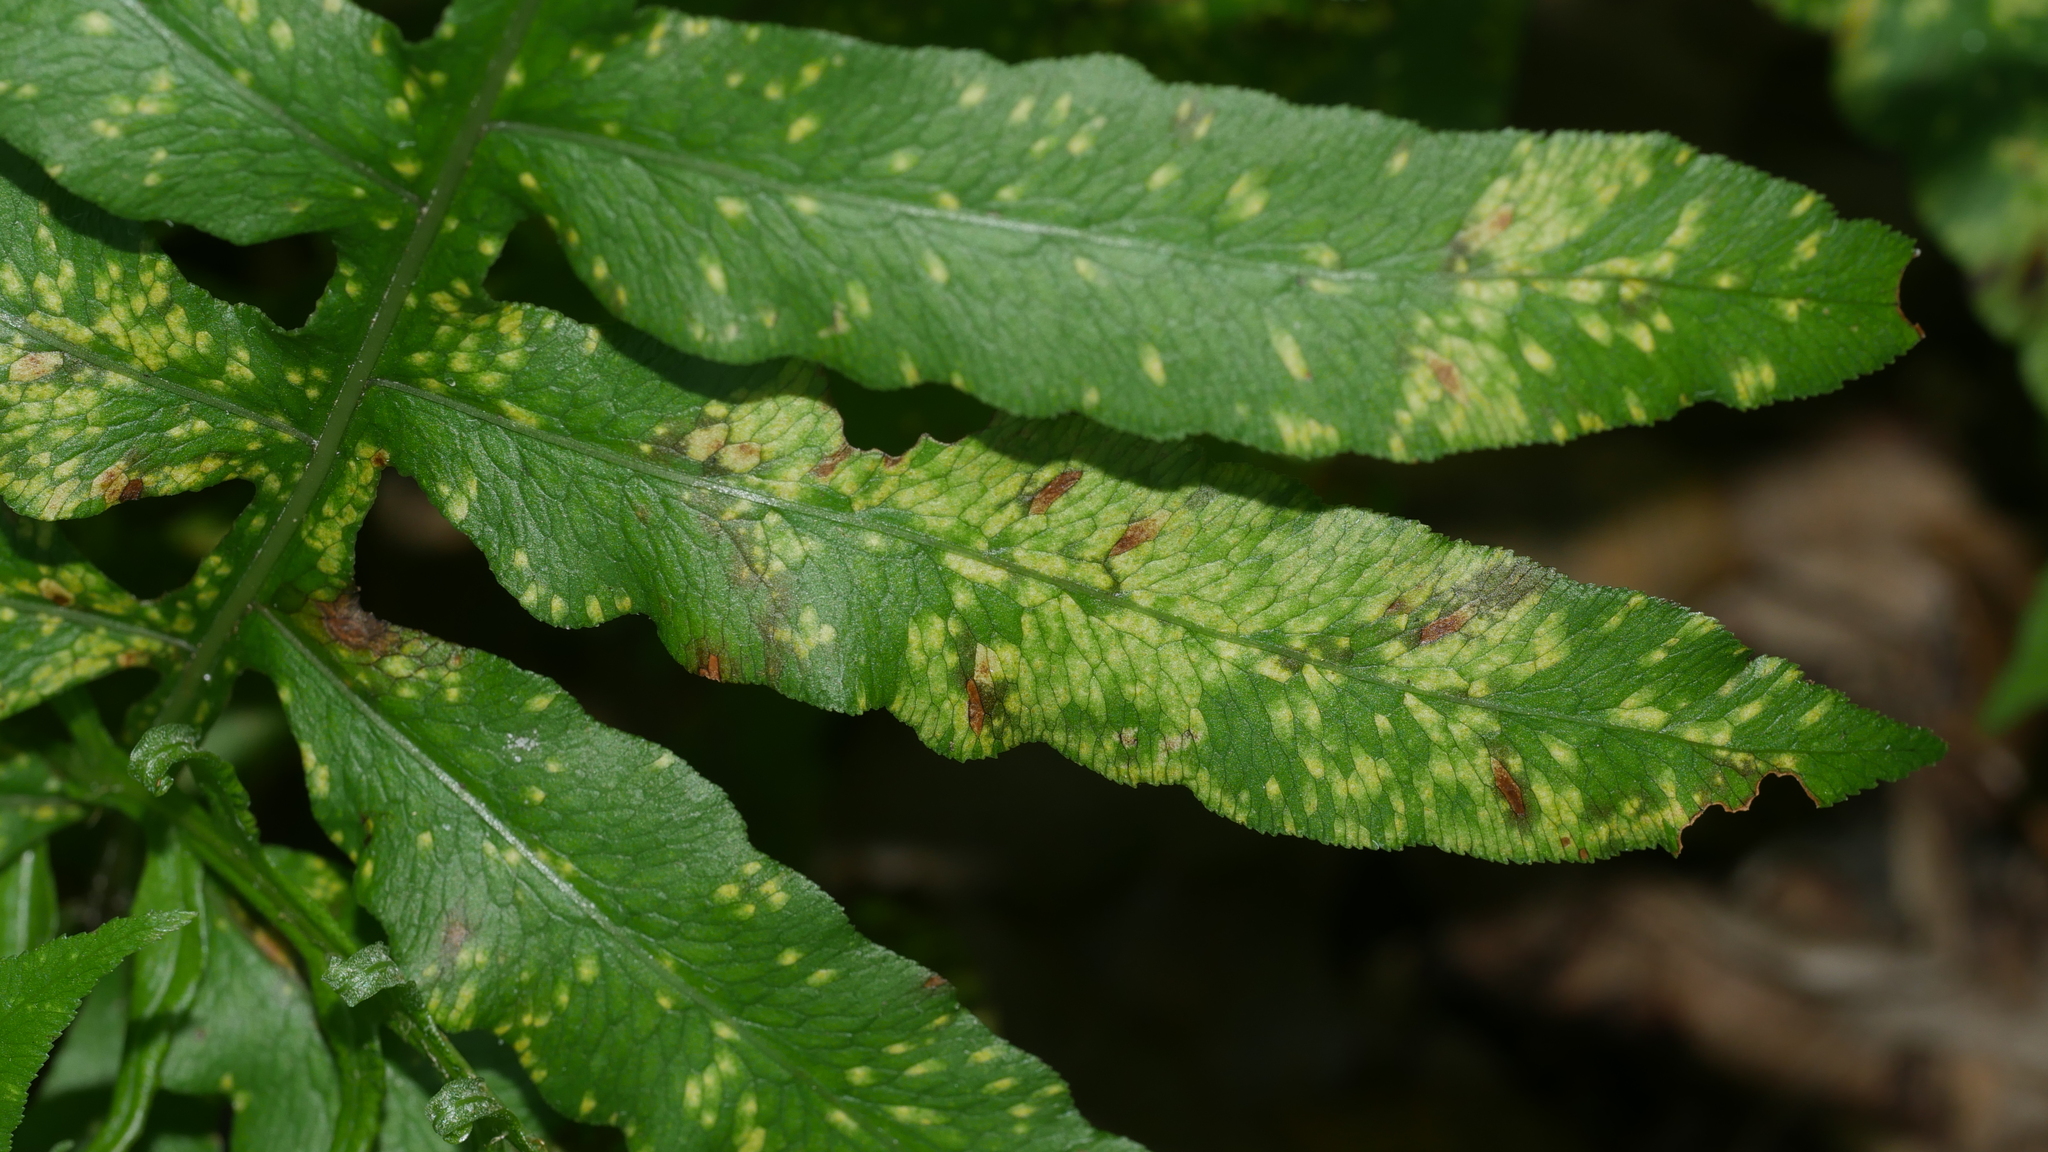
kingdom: Plantae
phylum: Tracheophyta
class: Polypodiopsida
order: Polypodiales
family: Blechnaceae
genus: Lorinseria
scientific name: Lorinseria areolata
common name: Dwarf chain fern
